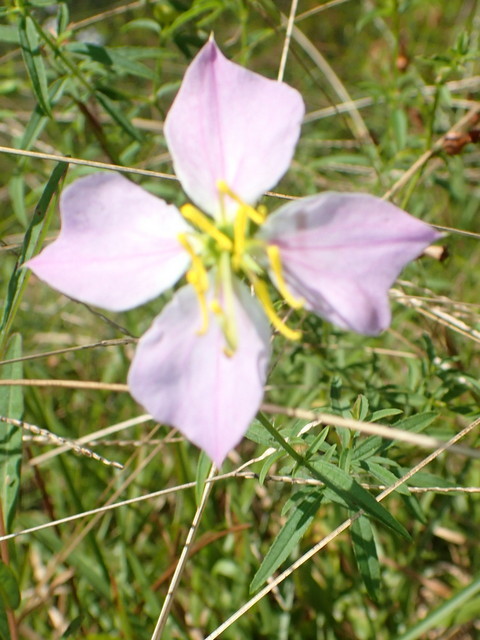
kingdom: Plantae
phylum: Tracheophyta
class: Magnoliopsida
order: Myrtales
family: Melastomataceae
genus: Rhexia
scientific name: Rhexia mariana
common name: Dull meadow-pitcher
